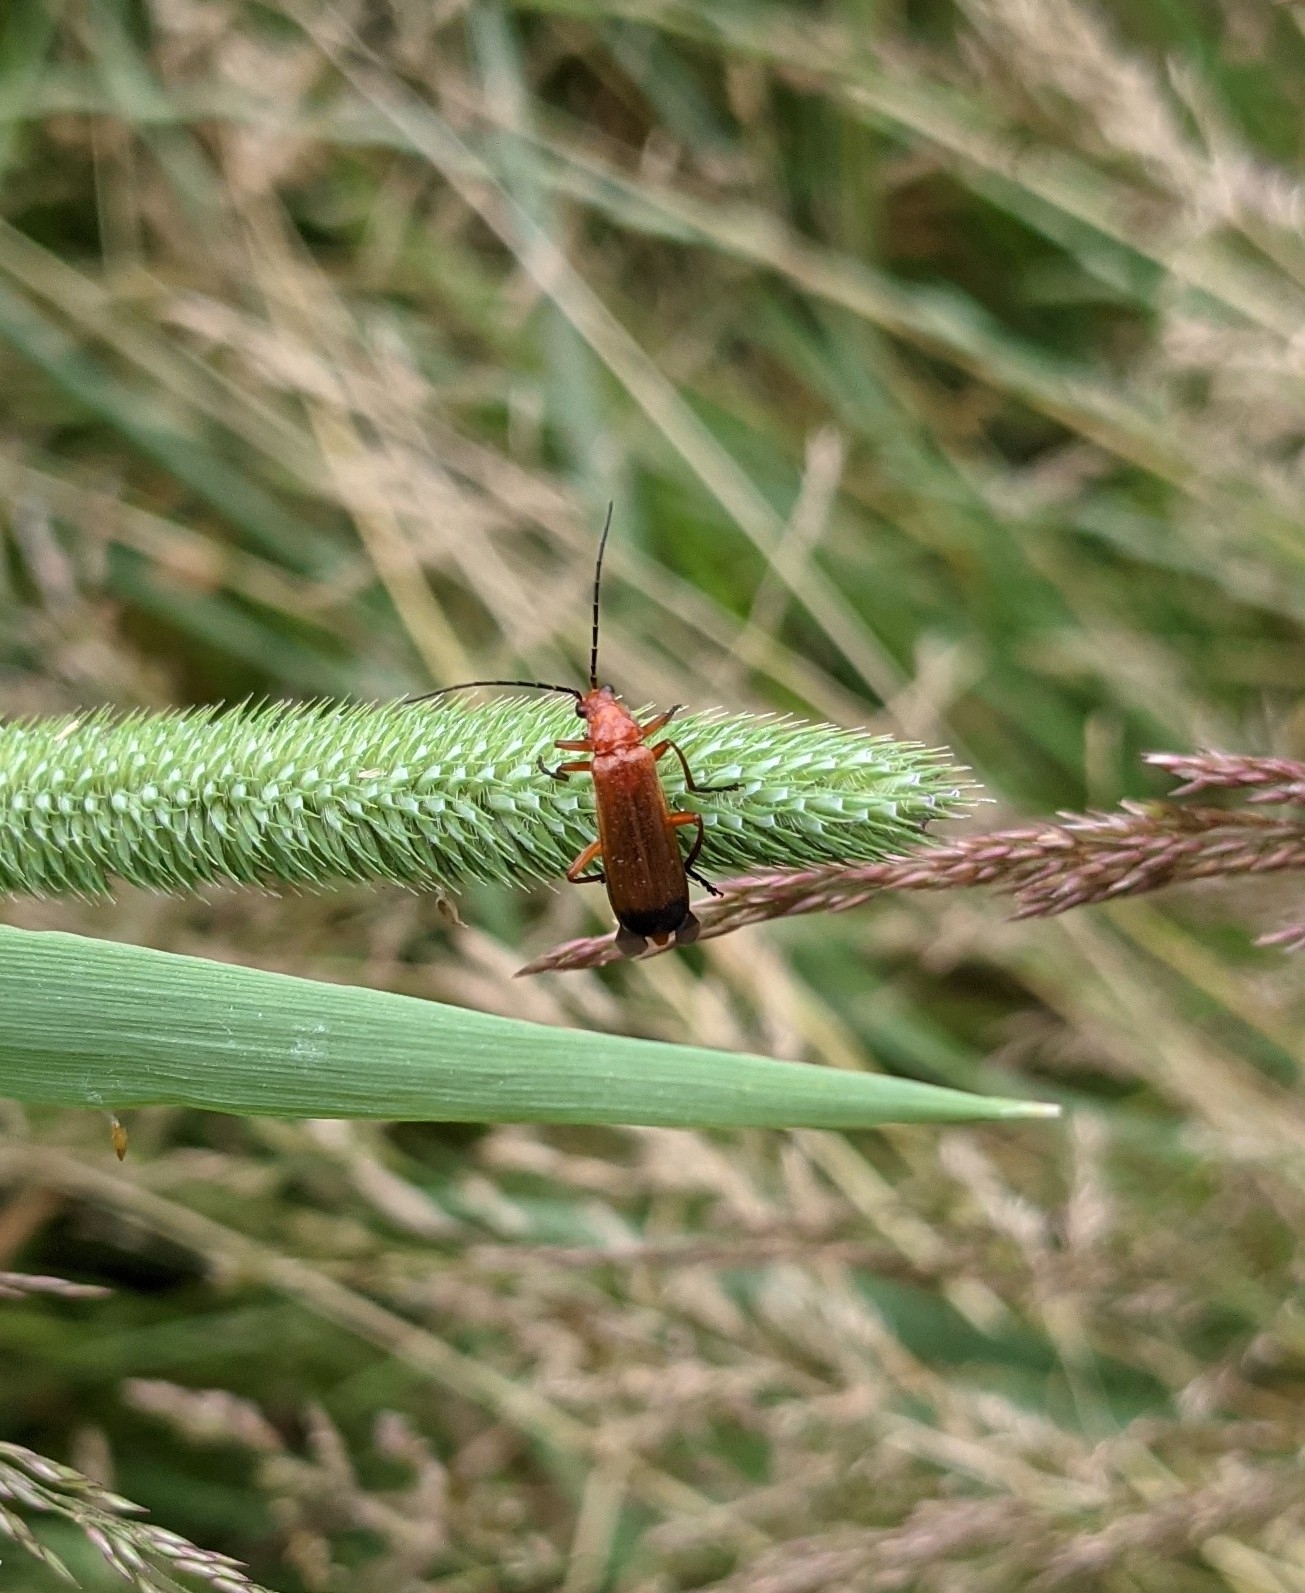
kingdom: Animalia
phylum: Arthropoda
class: Insecta
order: Coleoptera
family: Cantharidae
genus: Rhagonycha
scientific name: Rhagonycha fulva
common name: Common red soldier beetle
